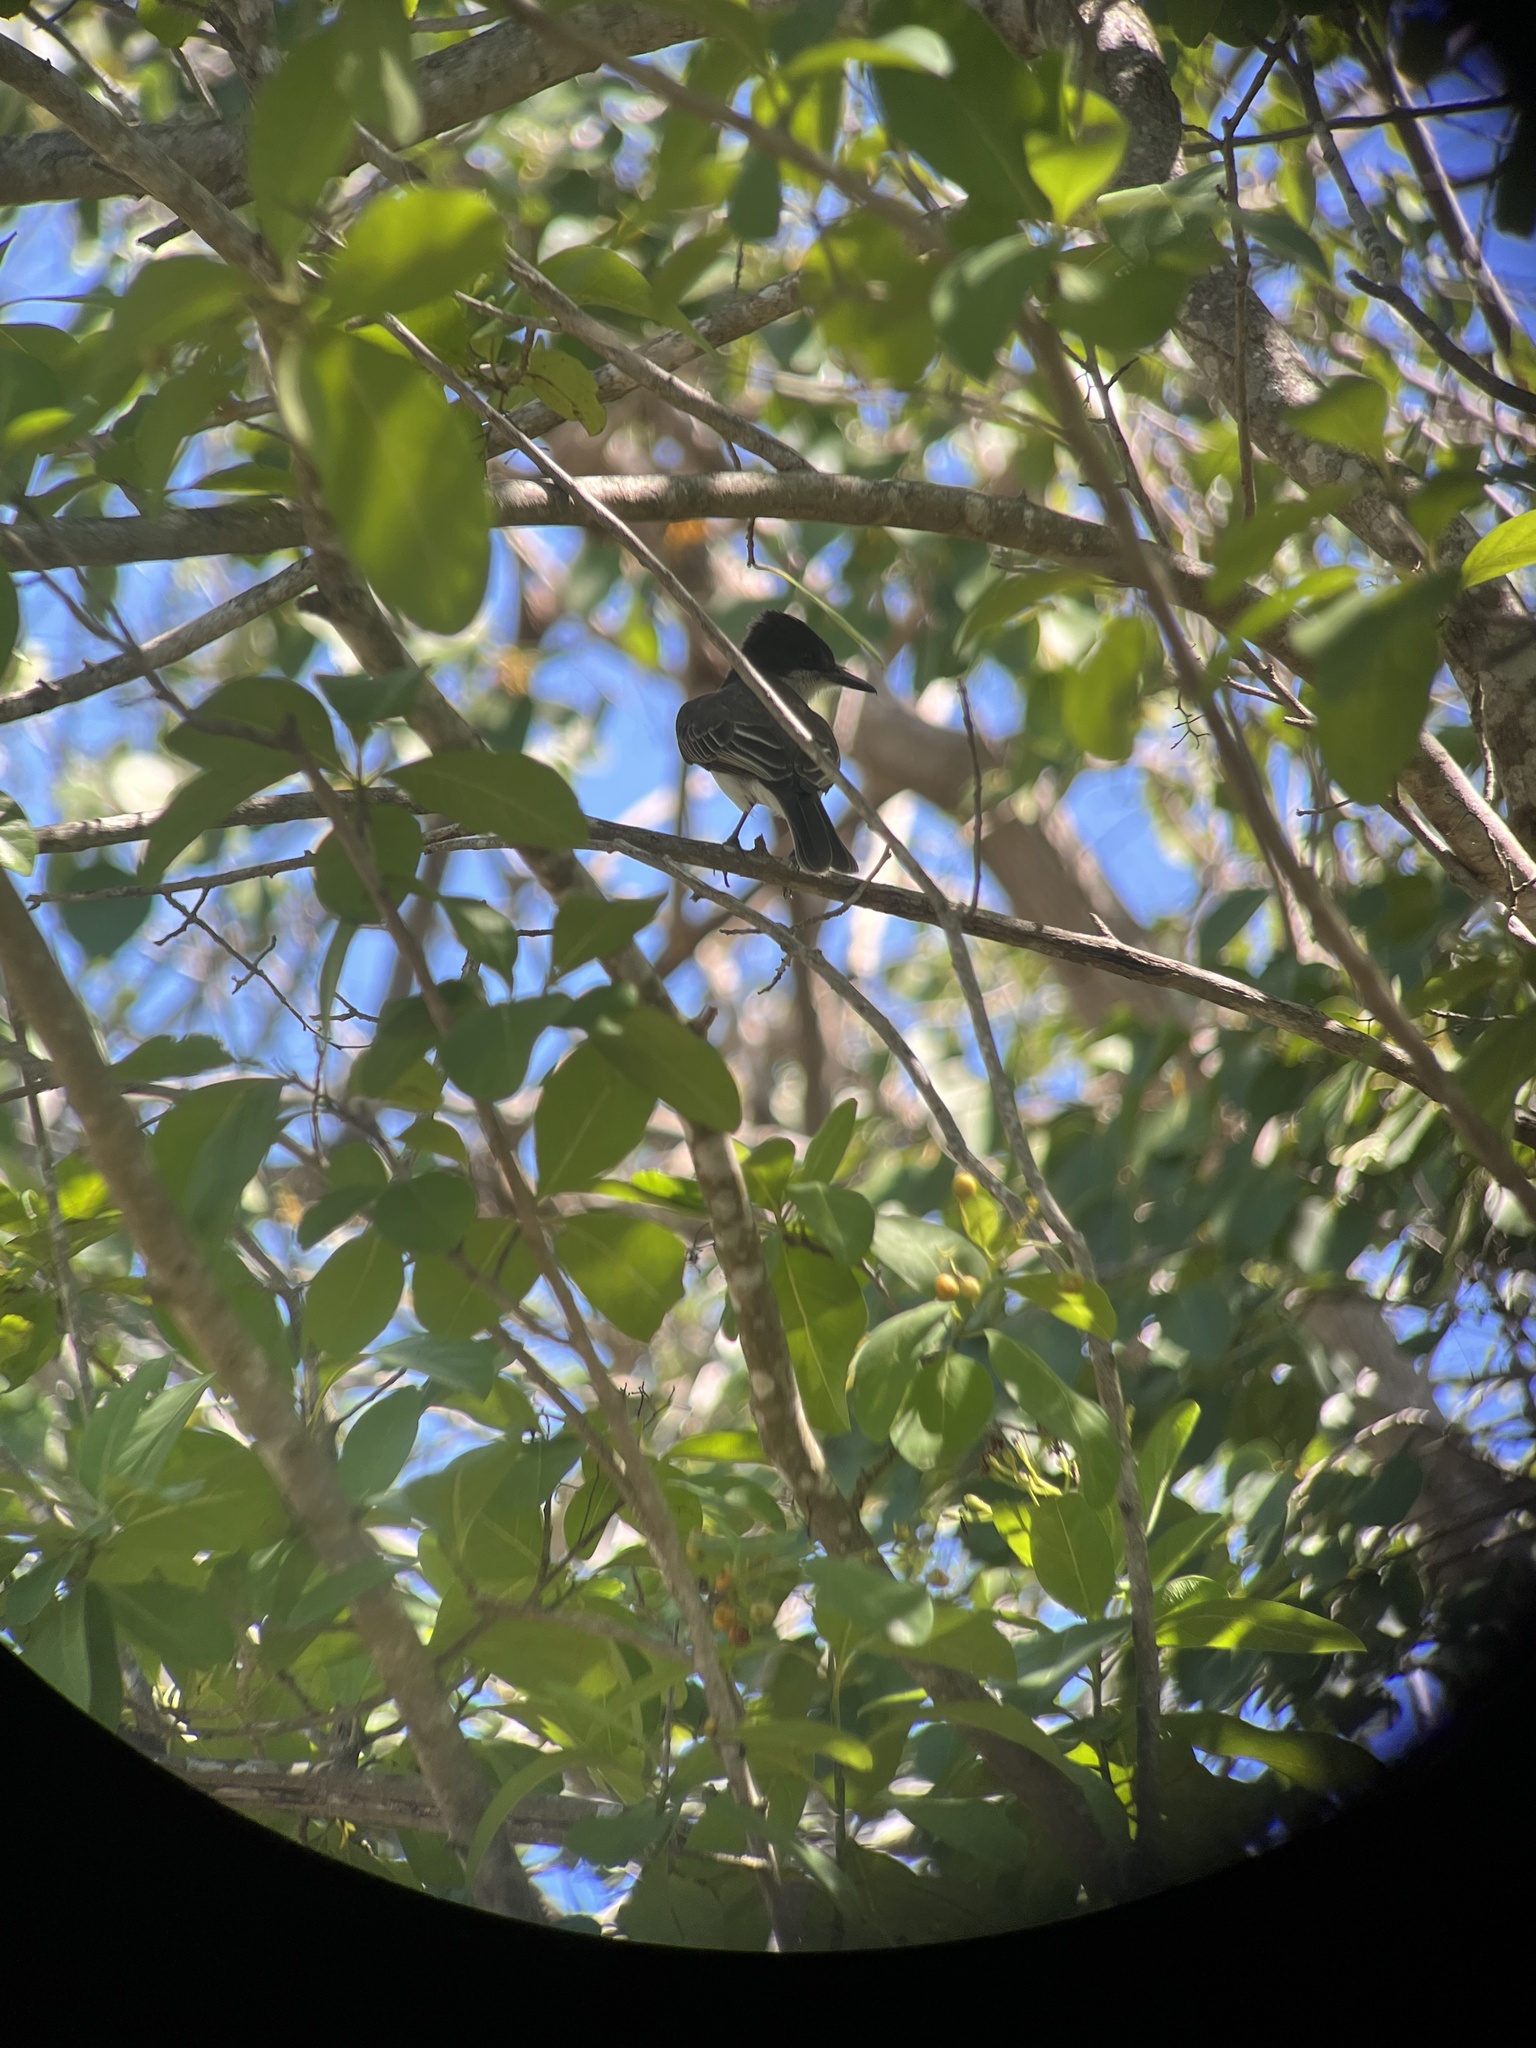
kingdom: Animalia
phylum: Chordata
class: Aves
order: Passeriformes
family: Tyrannidae
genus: Tyrannus
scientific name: Tyrannus caudifasciatus
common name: Loggerhead kingbird
